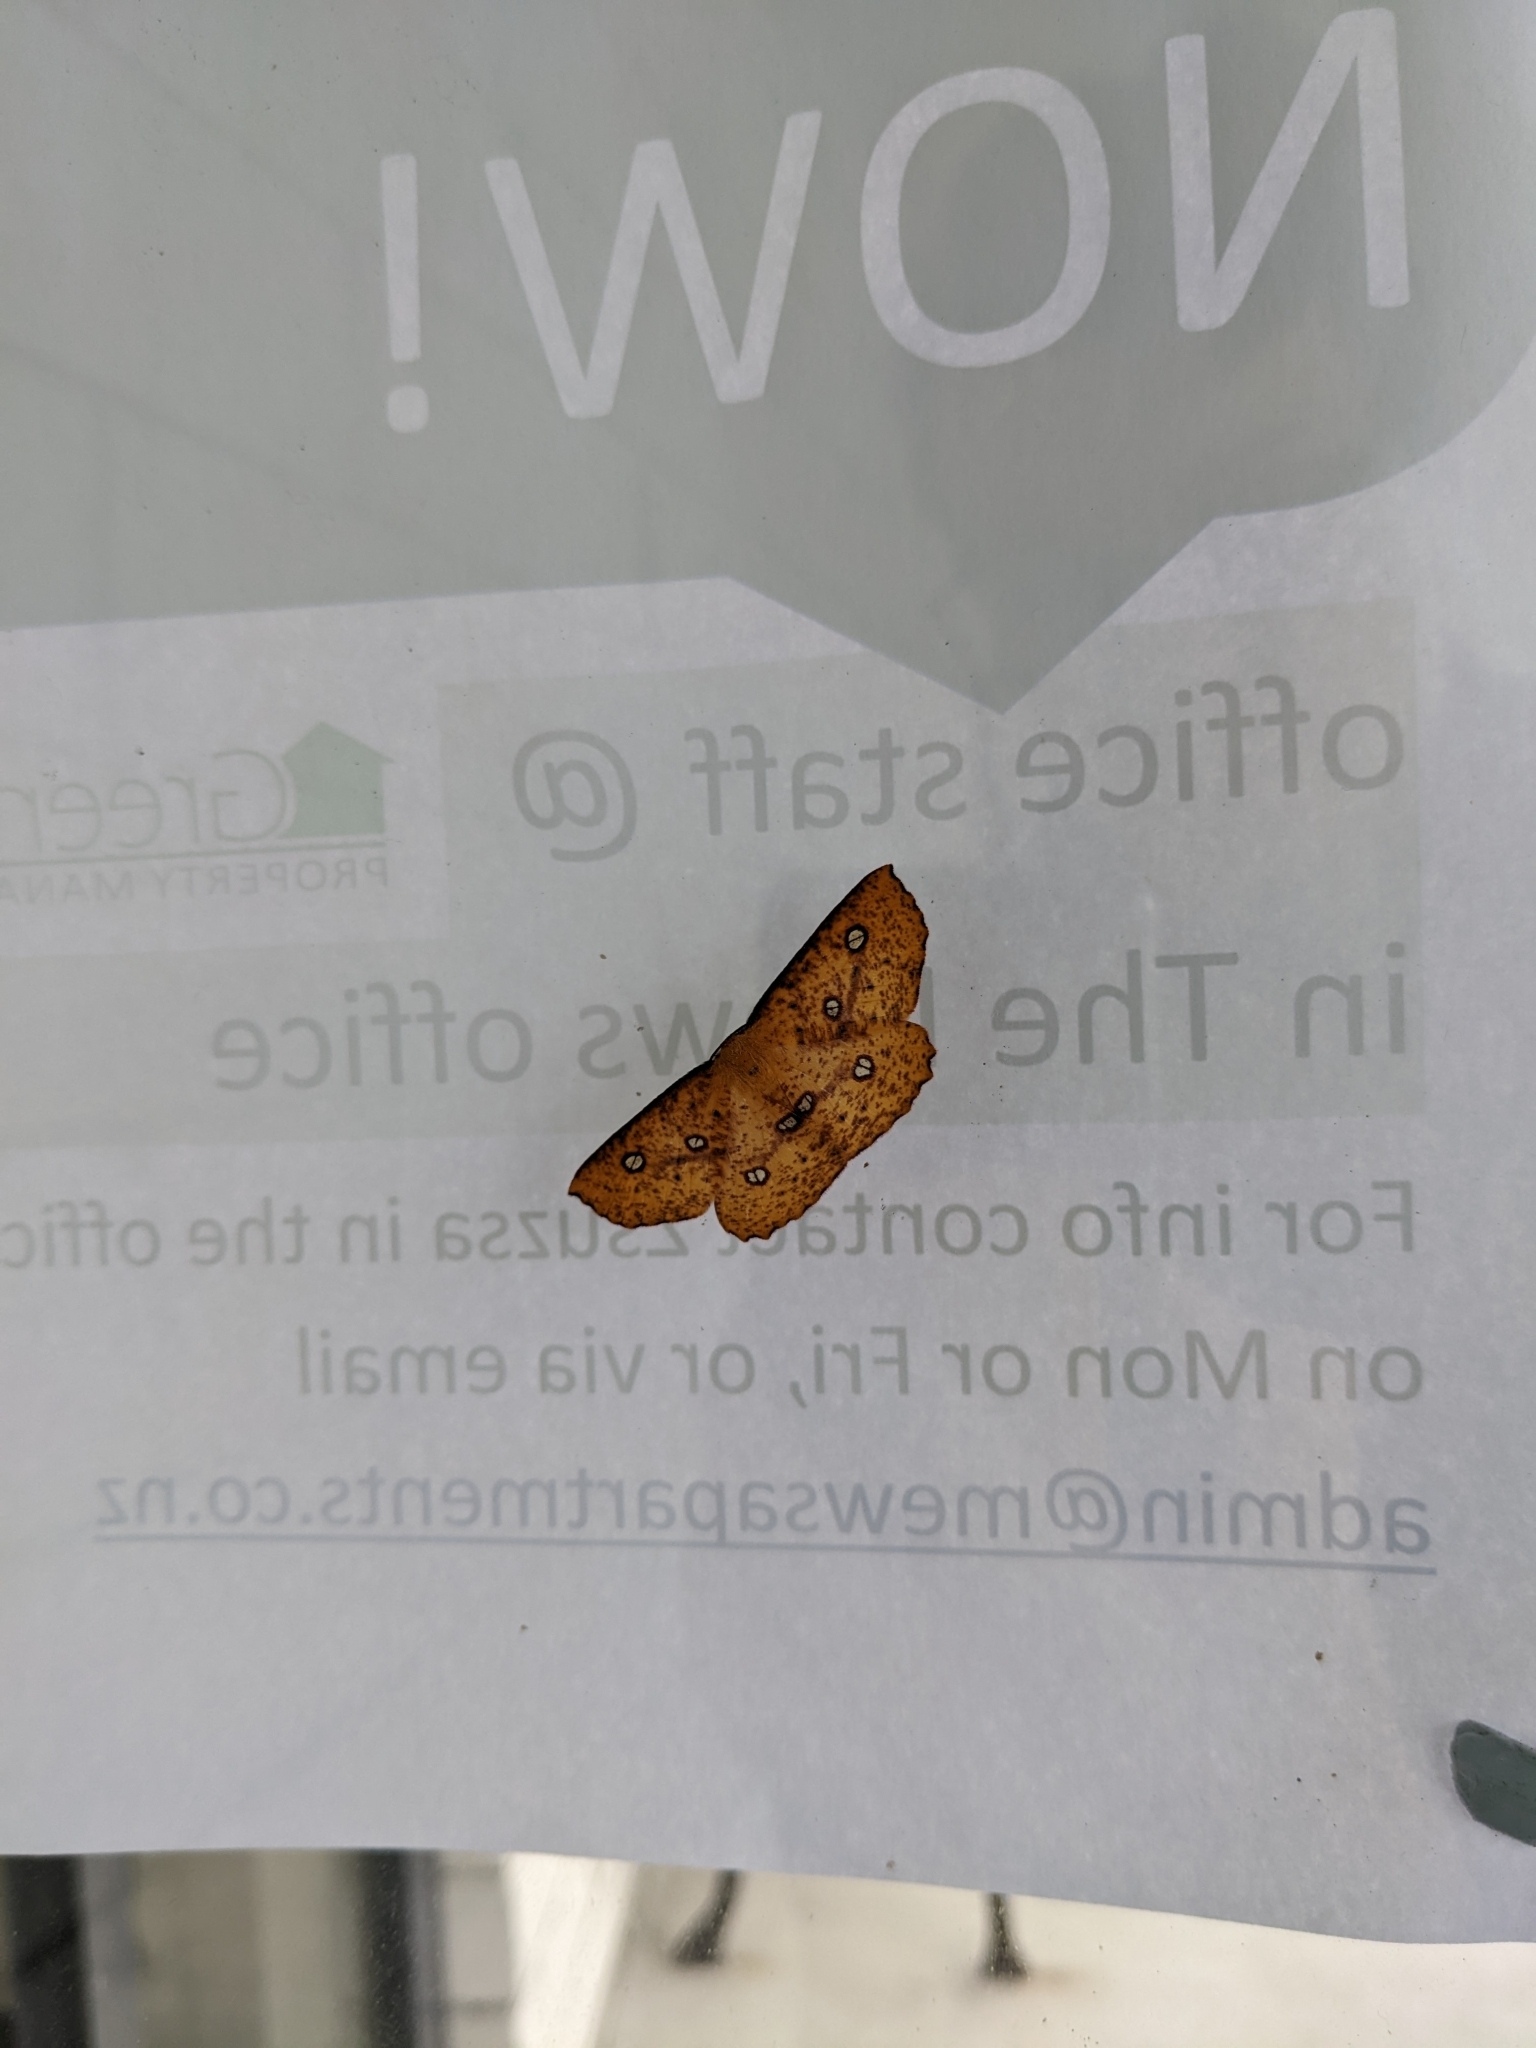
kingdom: Animalia
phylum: Arthropoda
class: Insecta
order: Lepidoptera
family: Geometridae
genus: Xyridacma
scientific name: Xyridacma alectoraria
